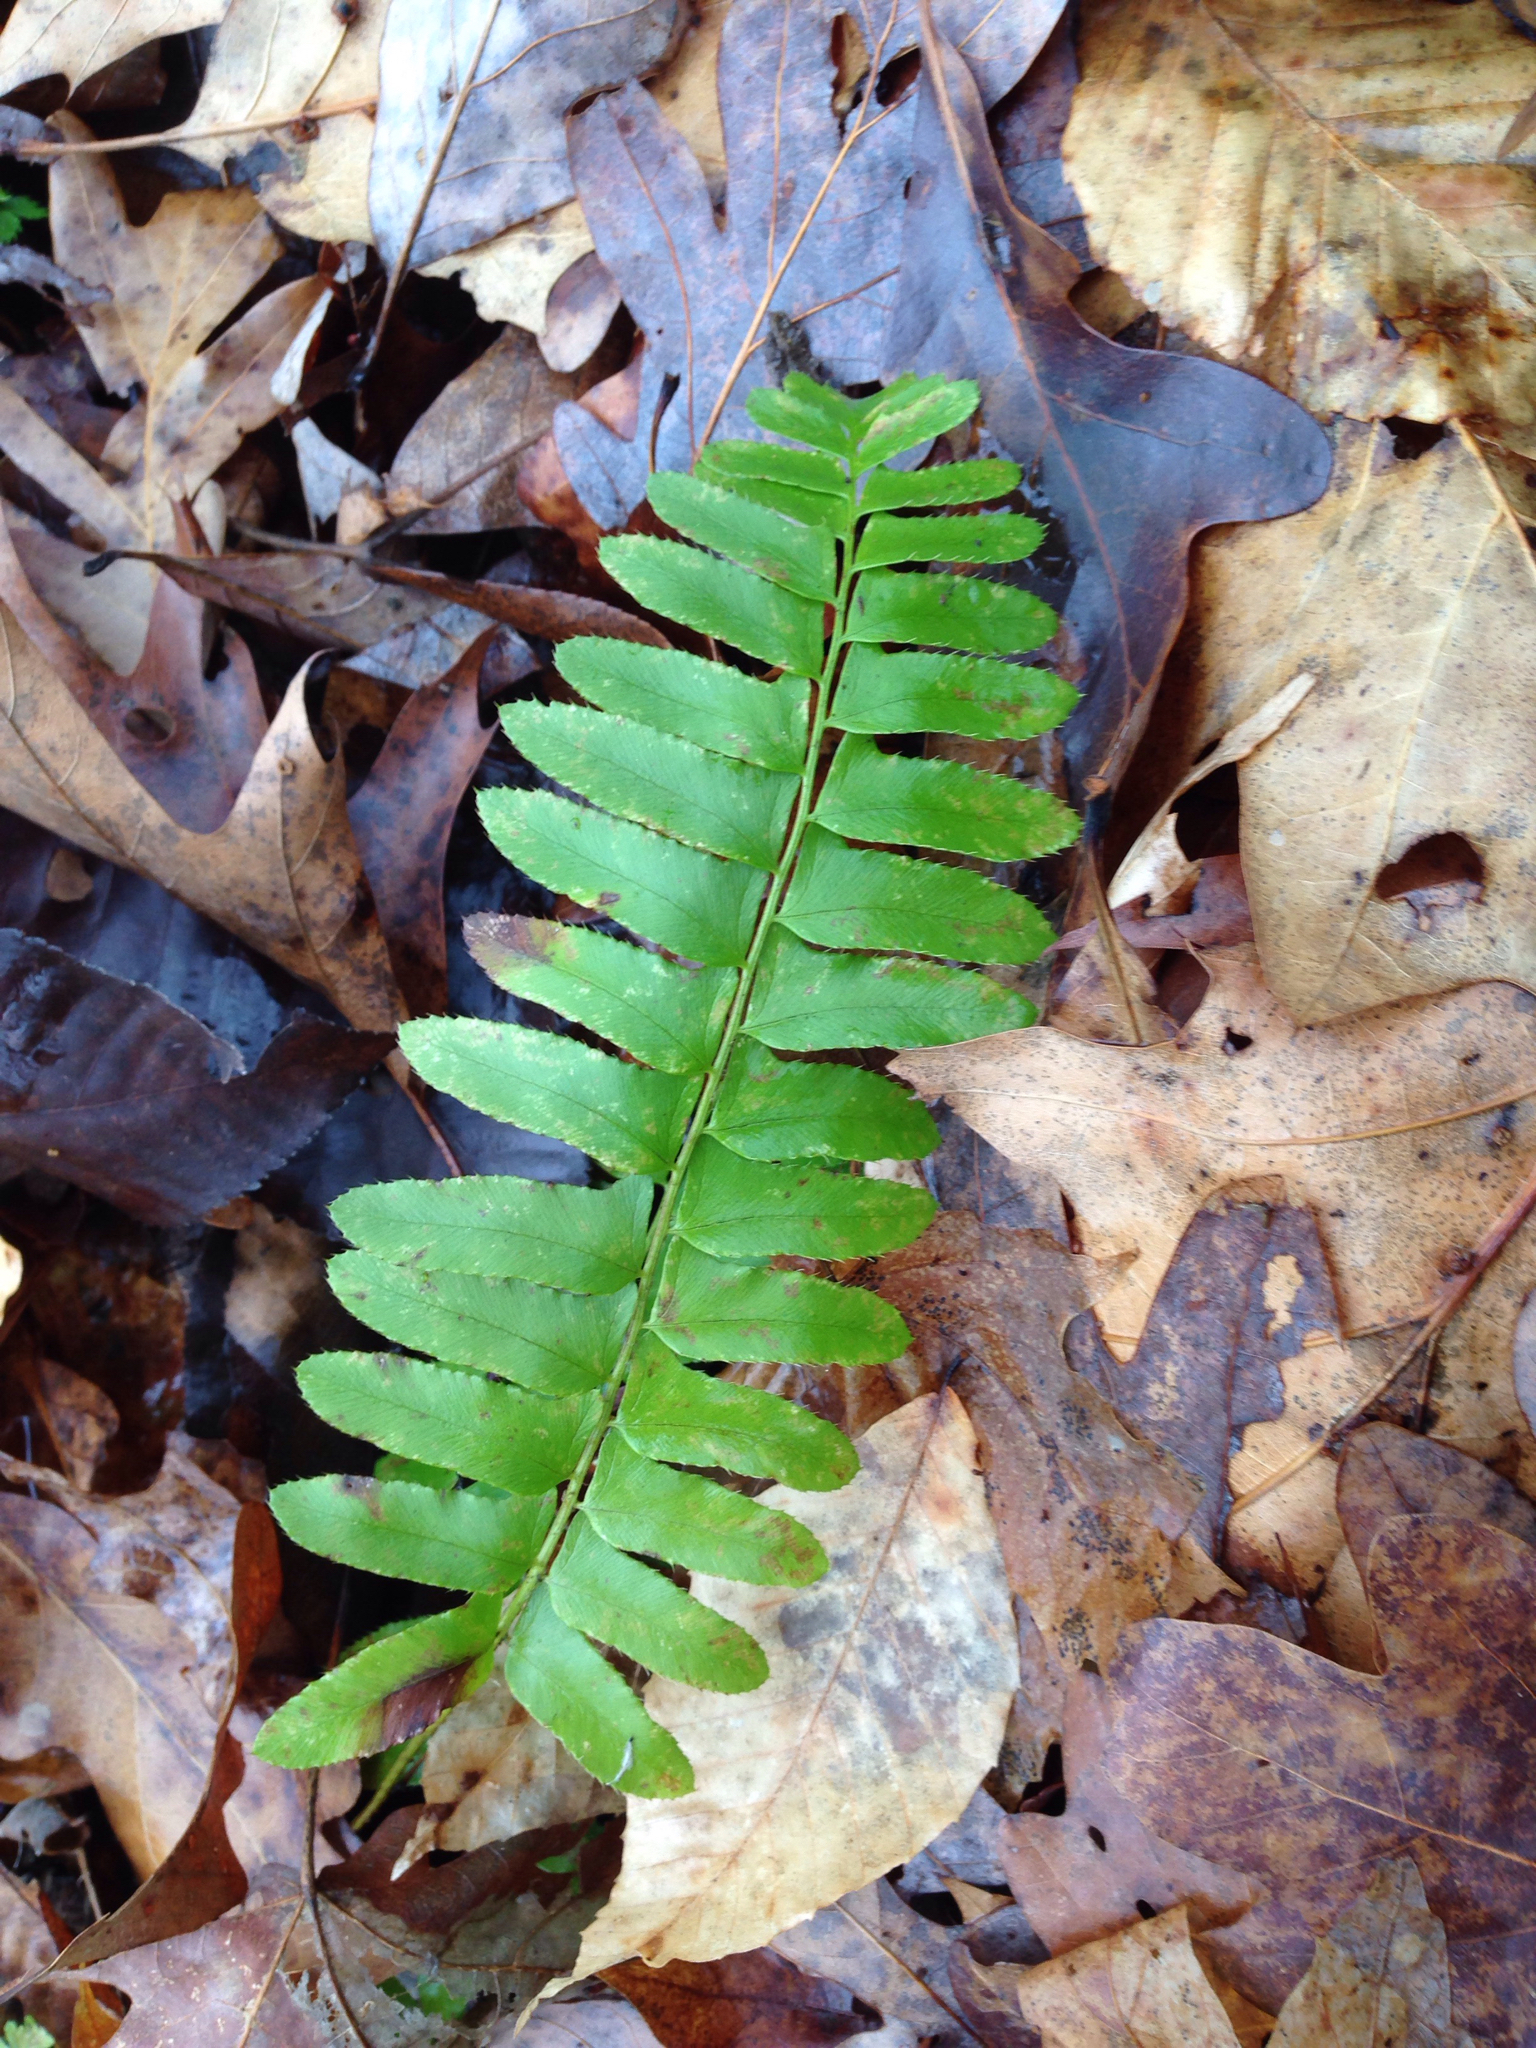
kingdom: Plantae
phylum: Tracheophyta
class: Polypodiopsida
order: Polypodiales
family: Dryopteridaceae
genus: Polystichum
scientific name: Polystichum acrostichoides
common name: Christmas fern
